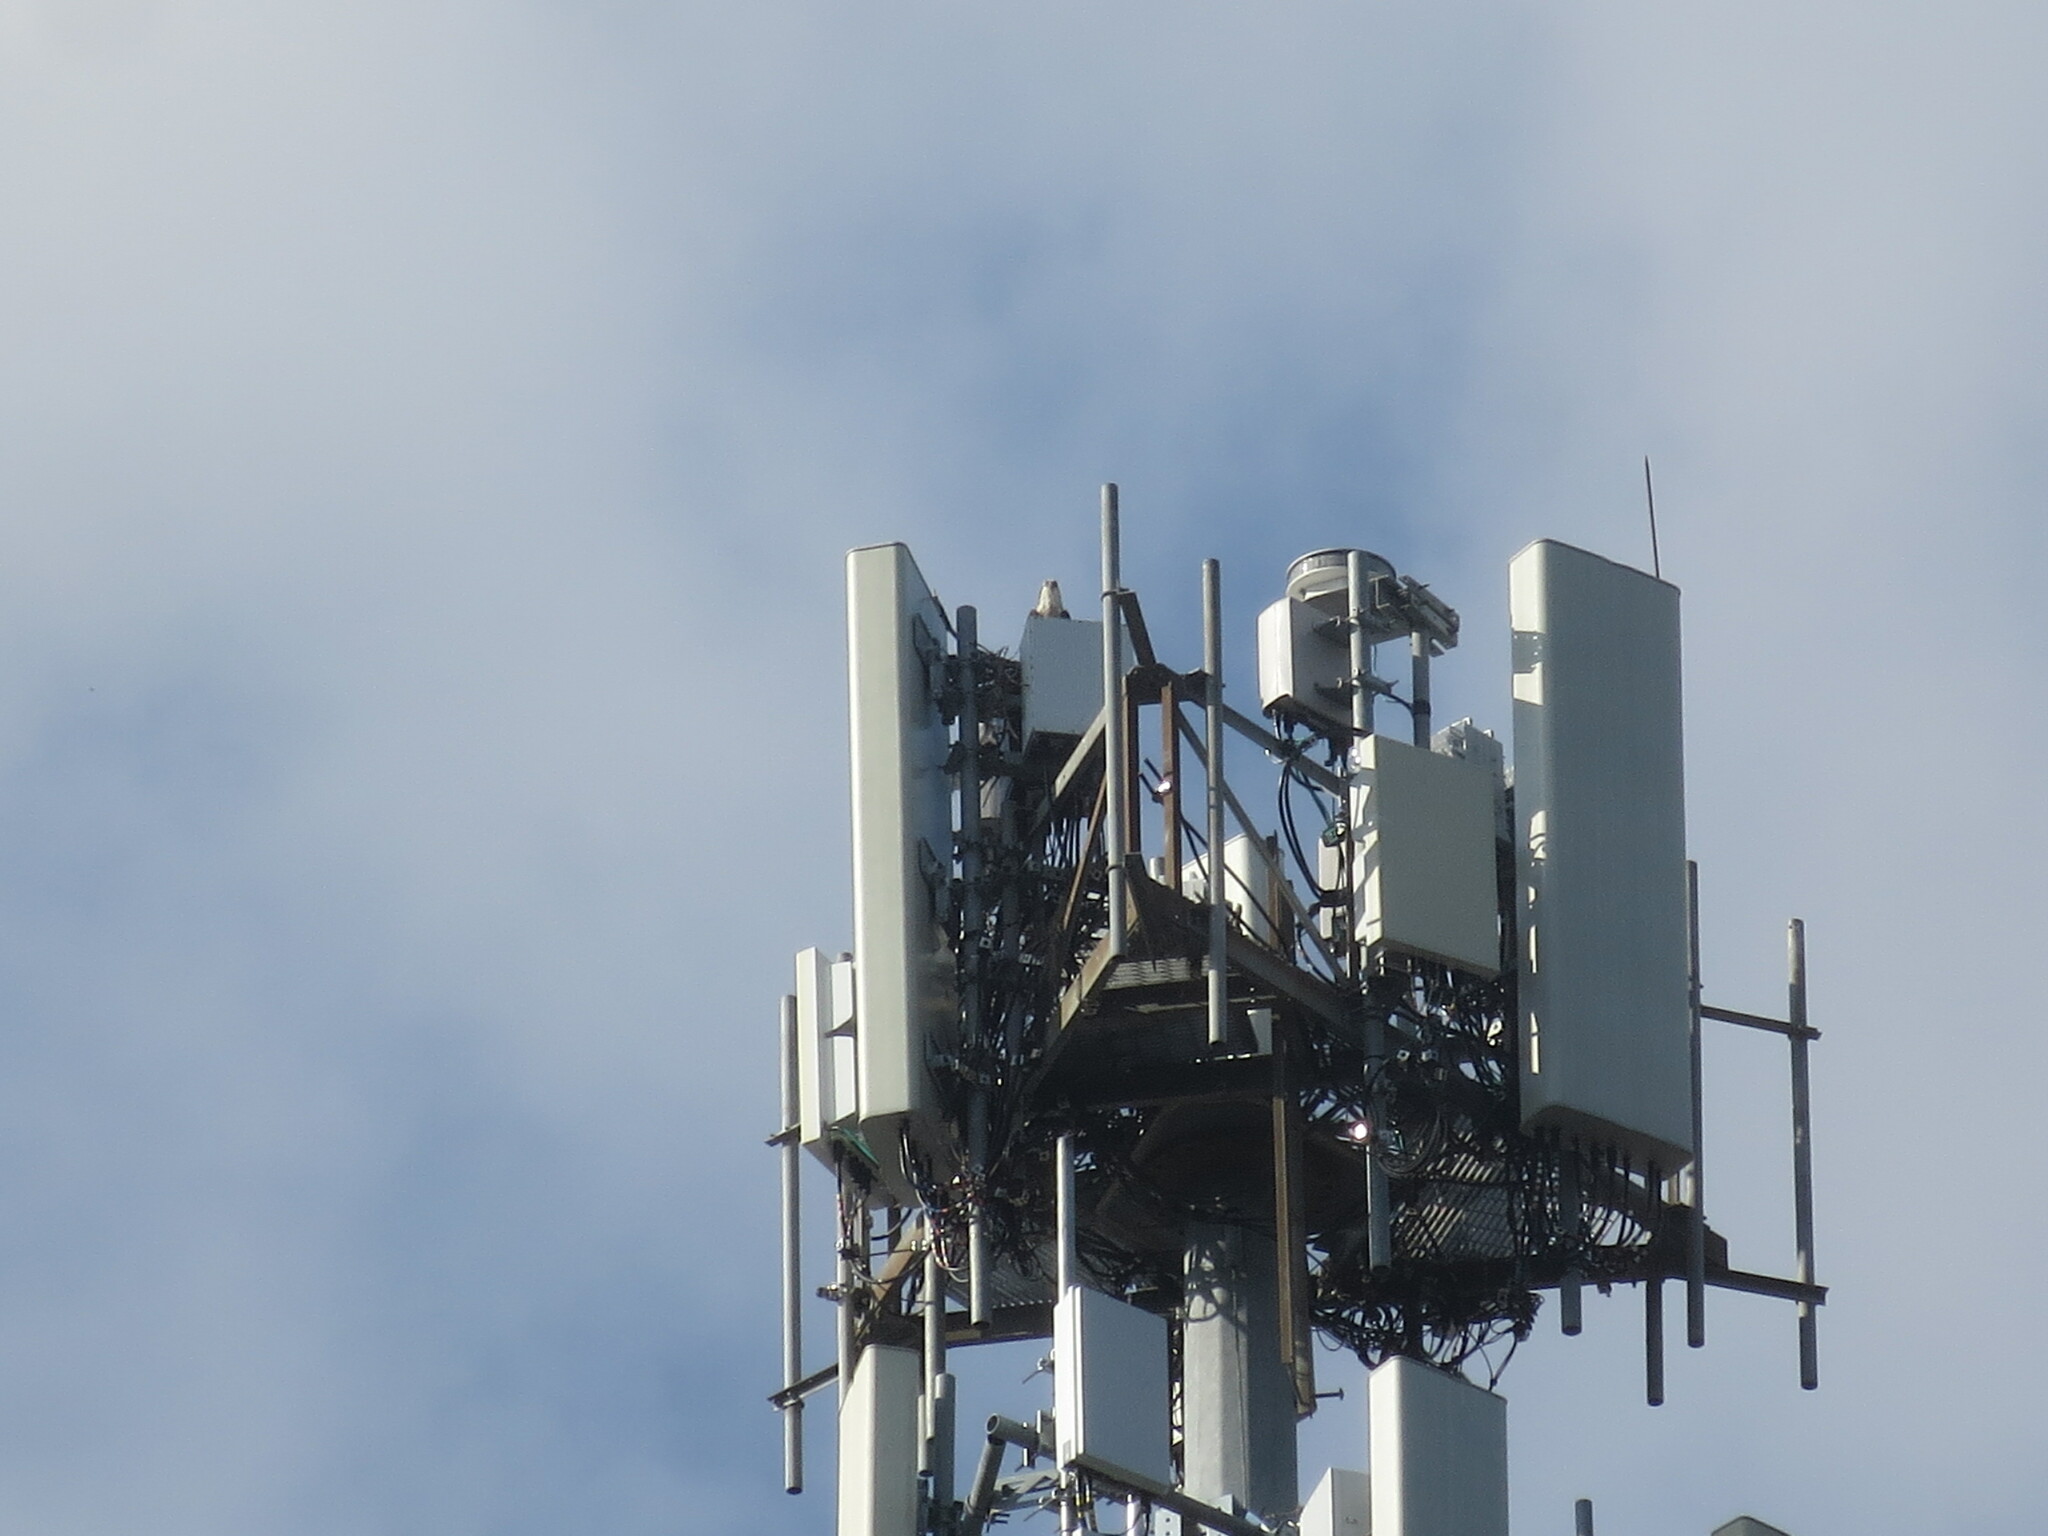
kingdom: Animalia
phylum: Chordata
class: Aves
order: Accipitriformes
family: Pandionidae
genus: Pandion
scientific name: Pandion haliaetus
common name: Osprey
